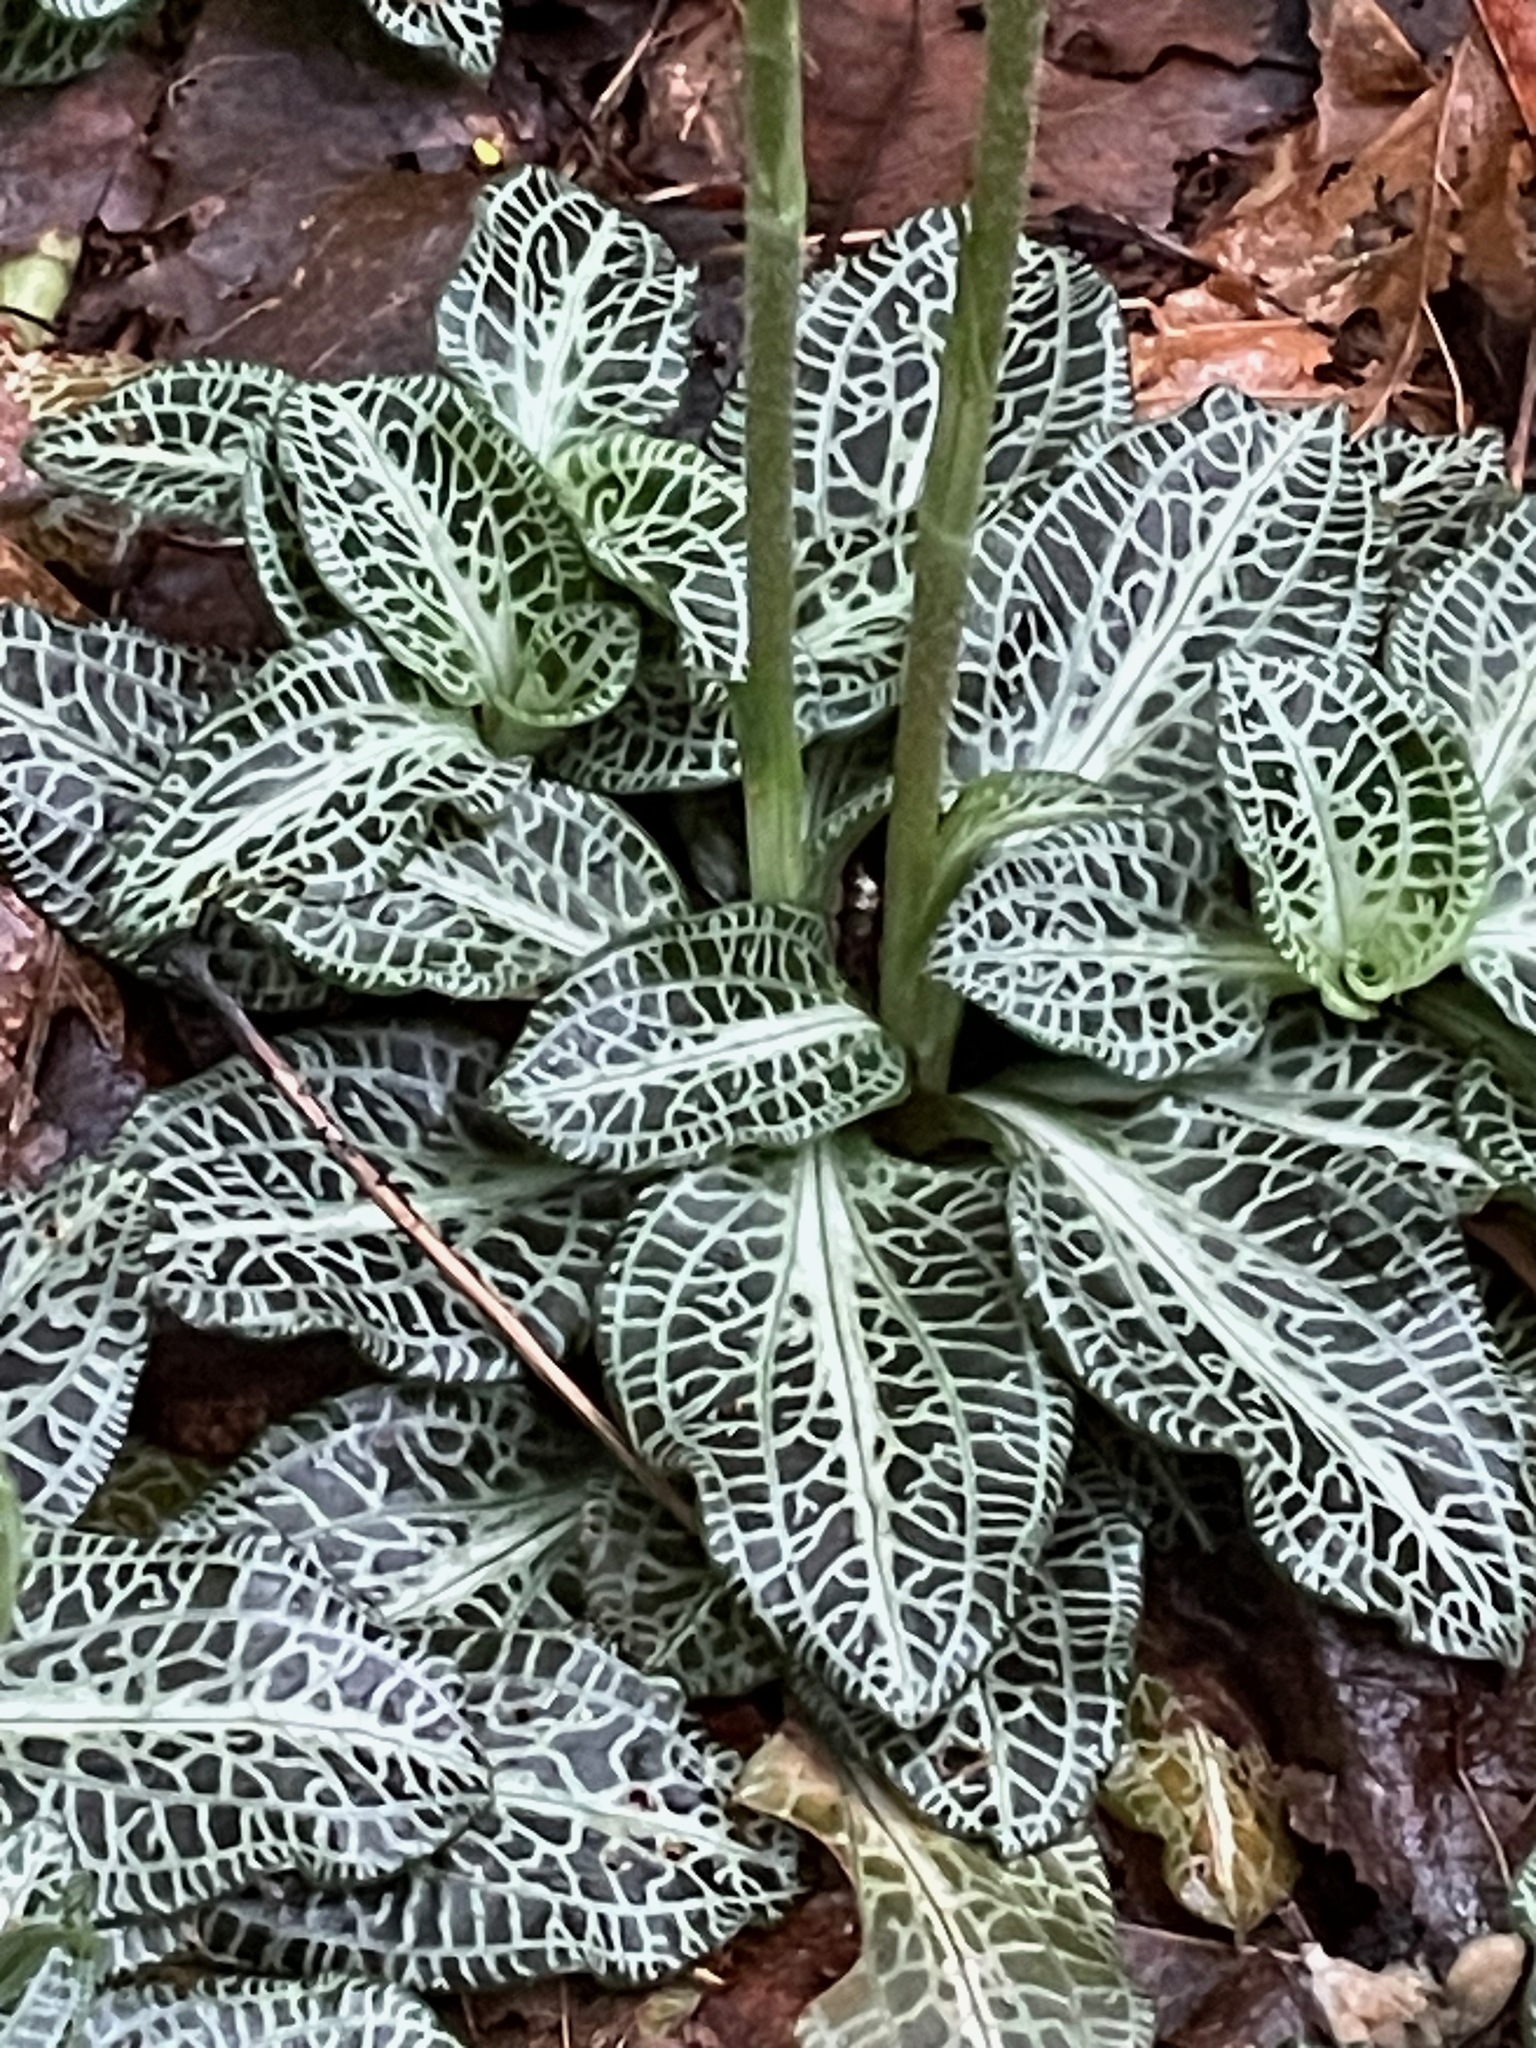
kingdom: Plantae
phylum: Tracheophyta
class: Liliopsida
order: Asparagales
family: Orchidaceae
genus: Goodyera
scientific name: Goodyera pubescens
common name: Downy rattlesnake-plantain
